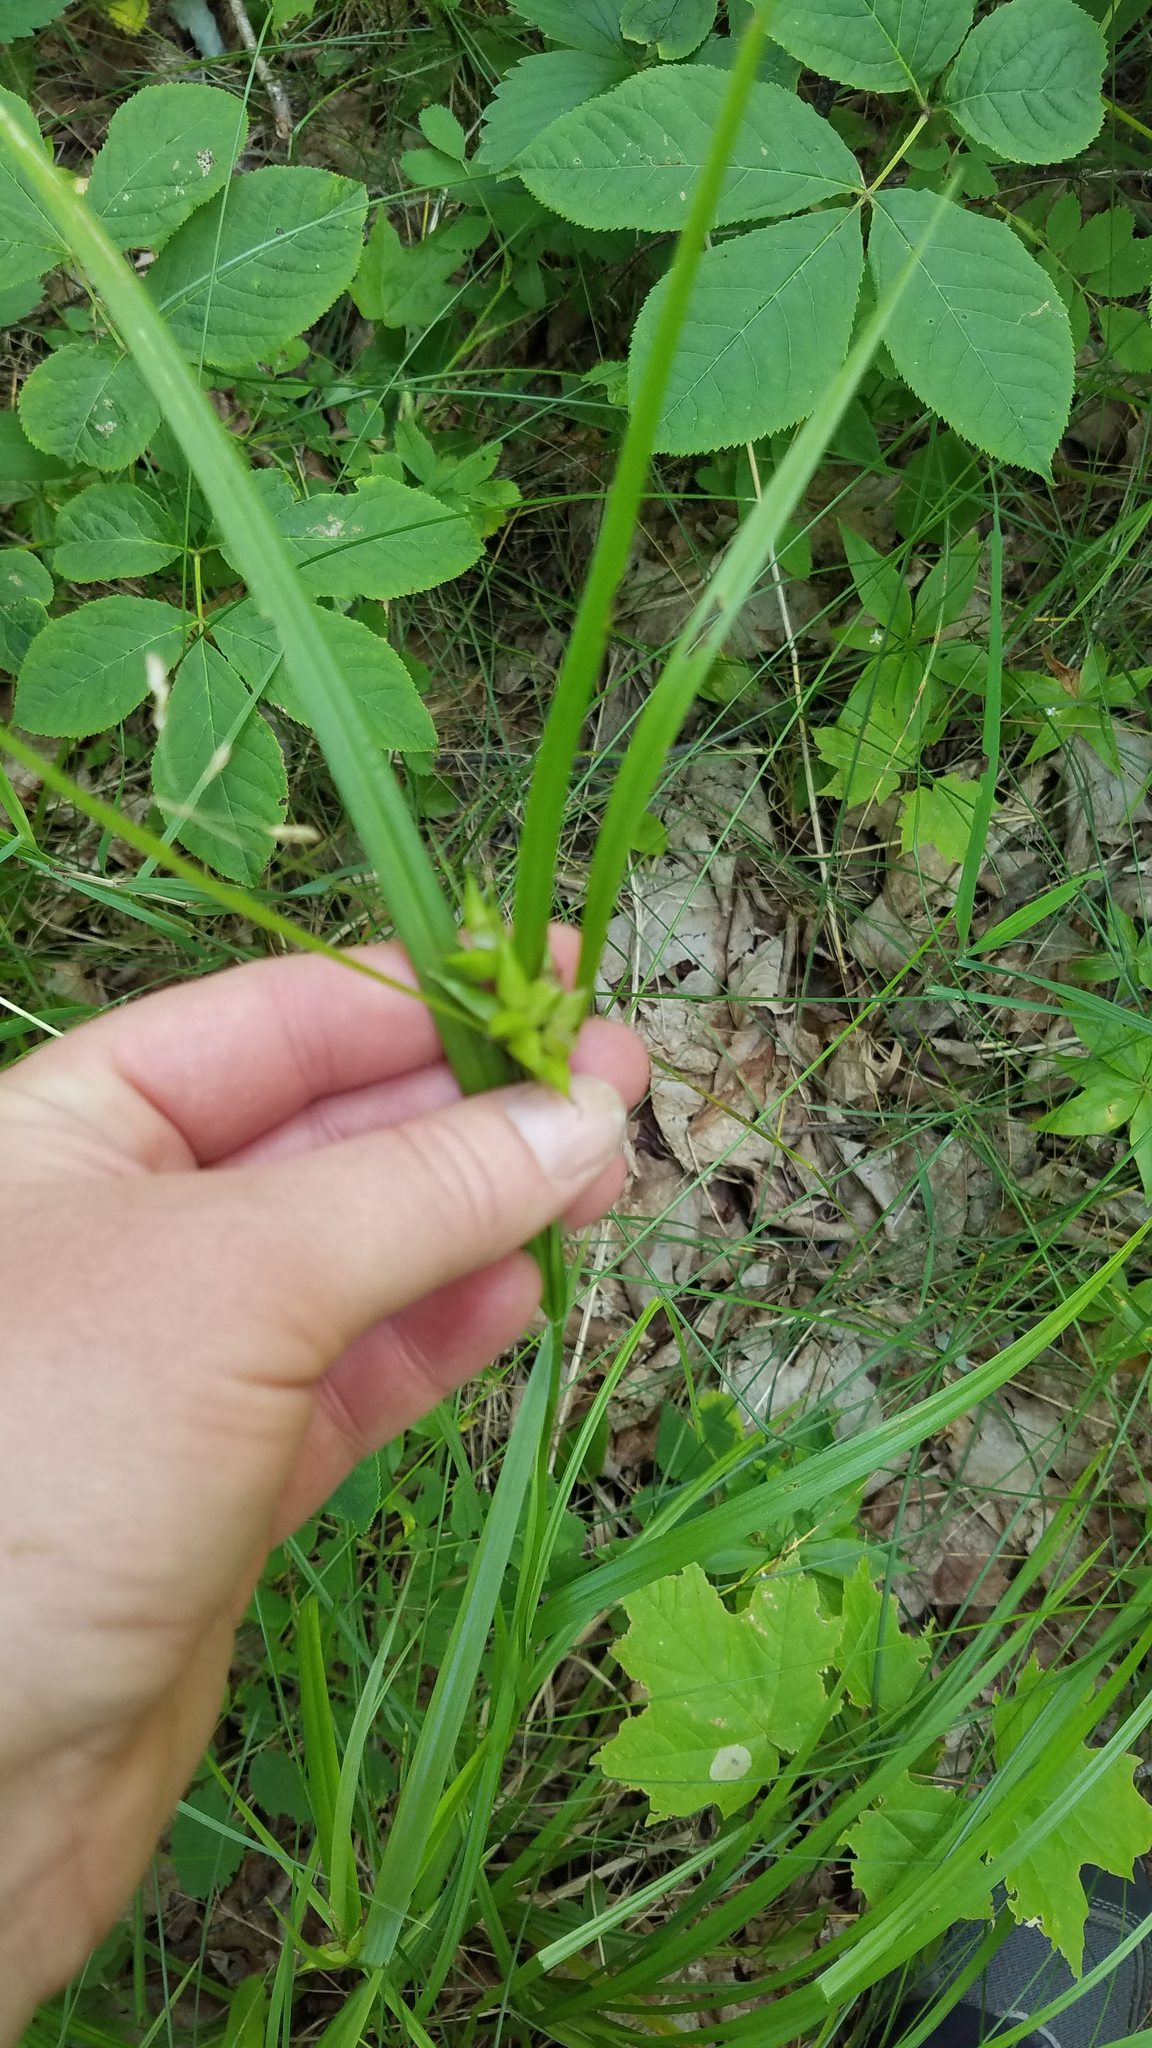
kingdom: Plantae
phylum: Tracheophyta
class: Liliopsida
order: Poales
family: Cyperaceae
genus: Carex
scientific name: Carex intumescens
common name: Greater bladder sedge
